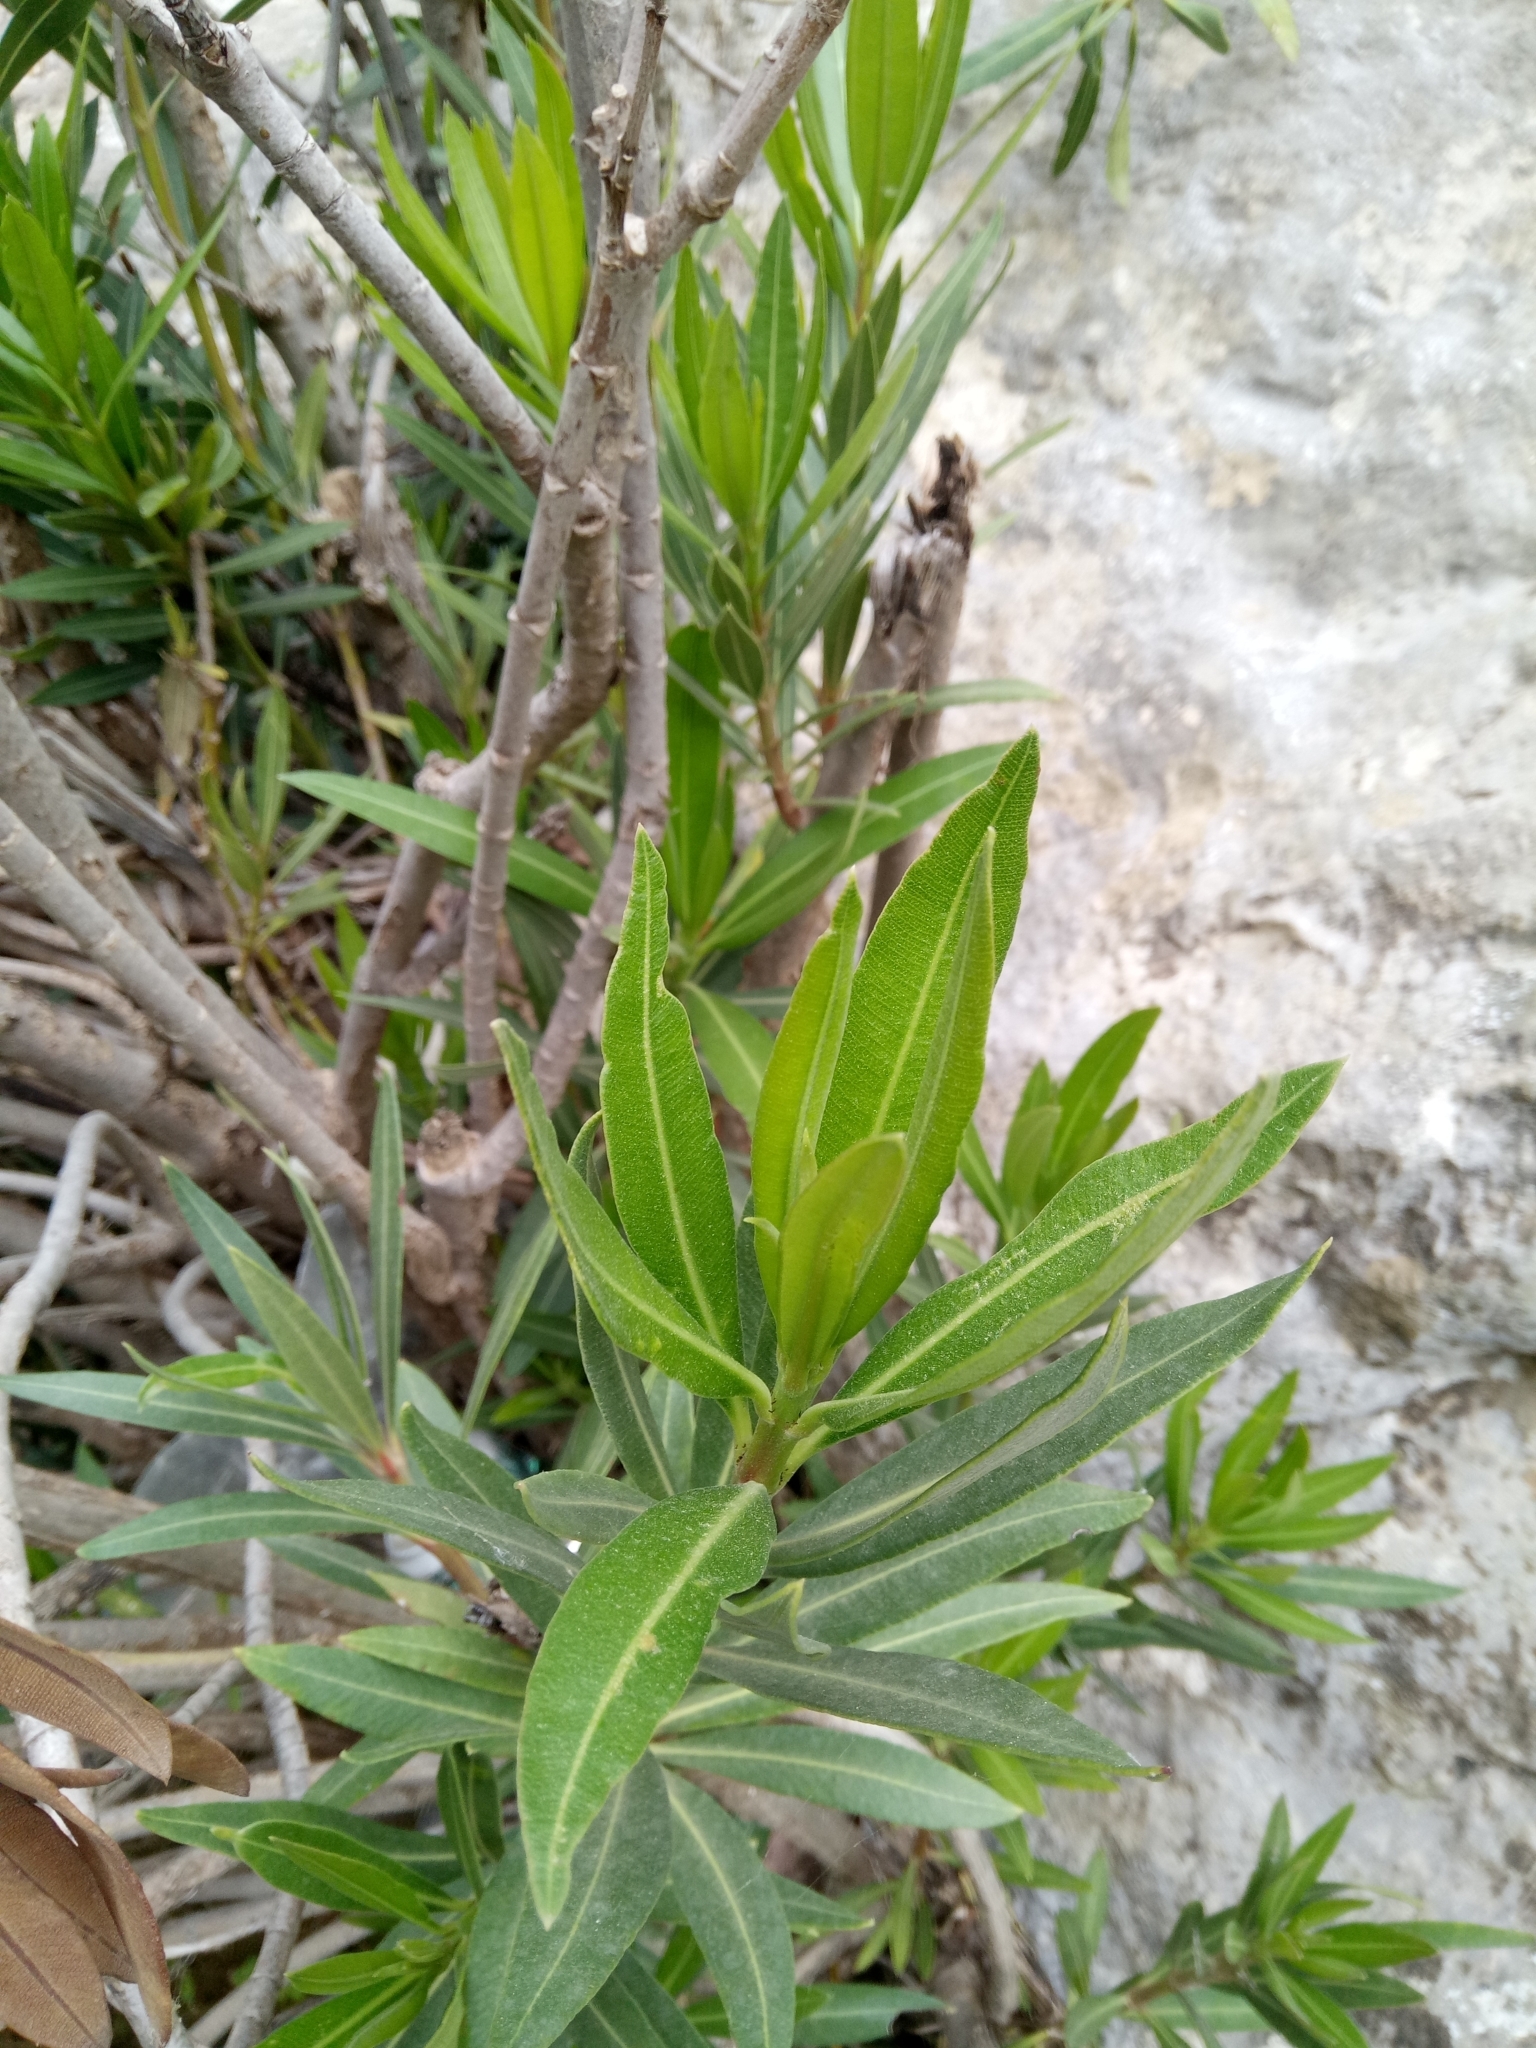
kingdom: Plantae
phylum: Tracheophyta
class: Magnoliopsida
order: Gentianales
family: Apocynaceae
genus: Nerium
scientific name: Nerium oleander
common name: Oleander
